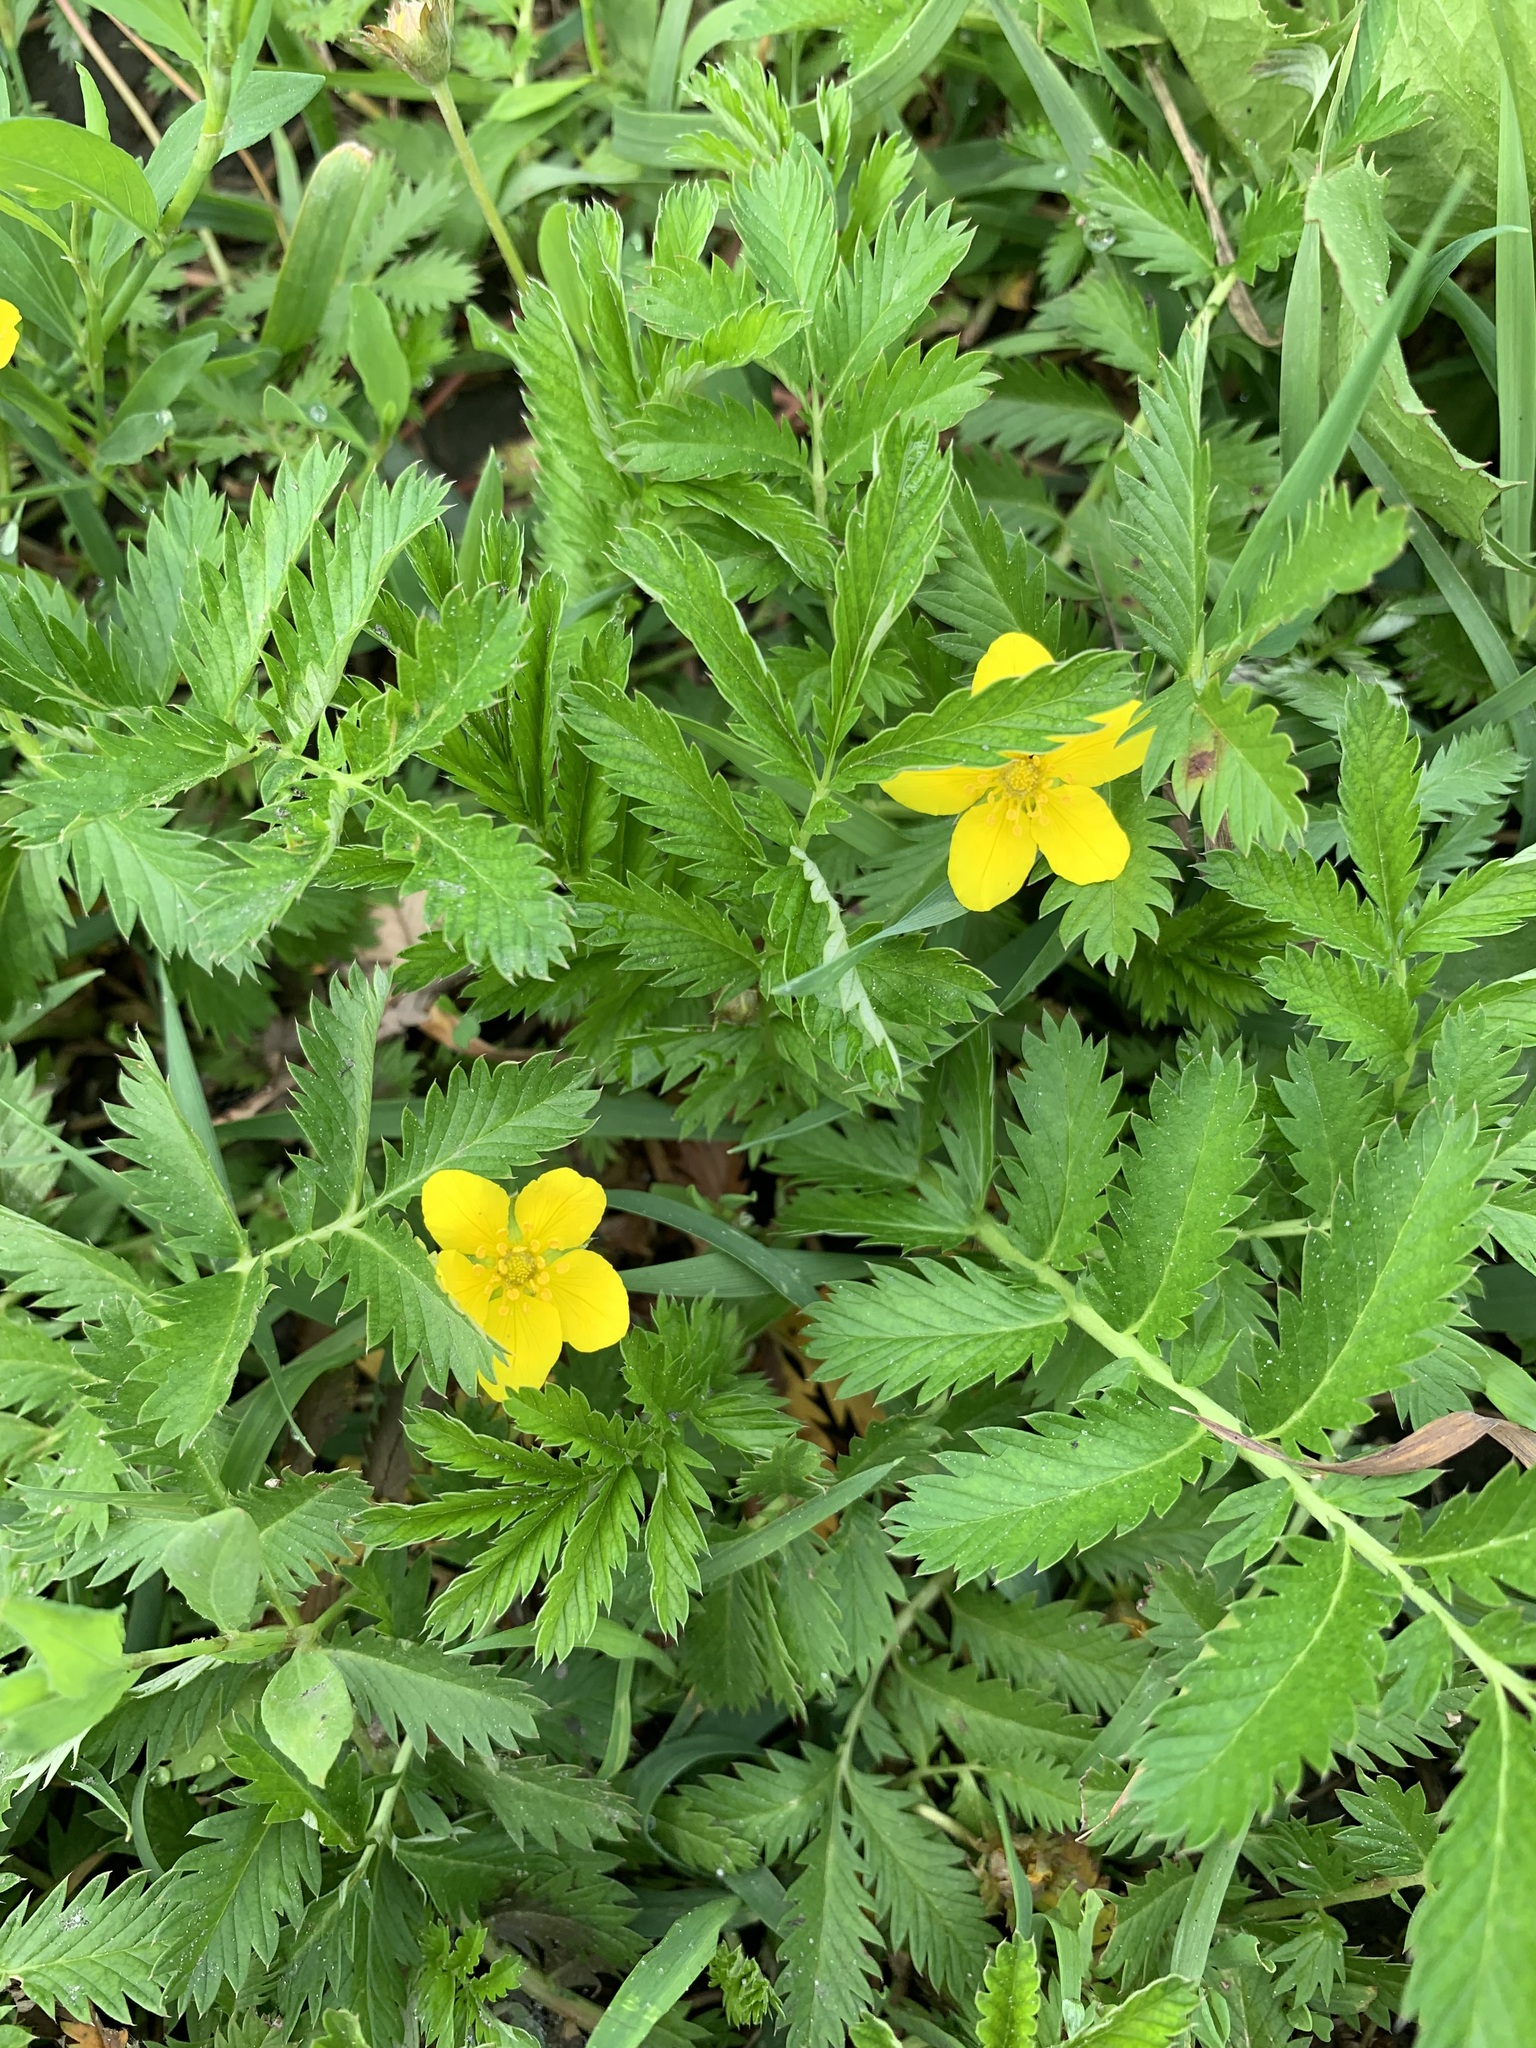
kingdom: Plantae
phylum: Tracheophyta
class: Magnoliopsida
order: Rosales
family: Rosaceae
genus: Argentina
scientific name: Argentina anserina
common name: Common silverweed
